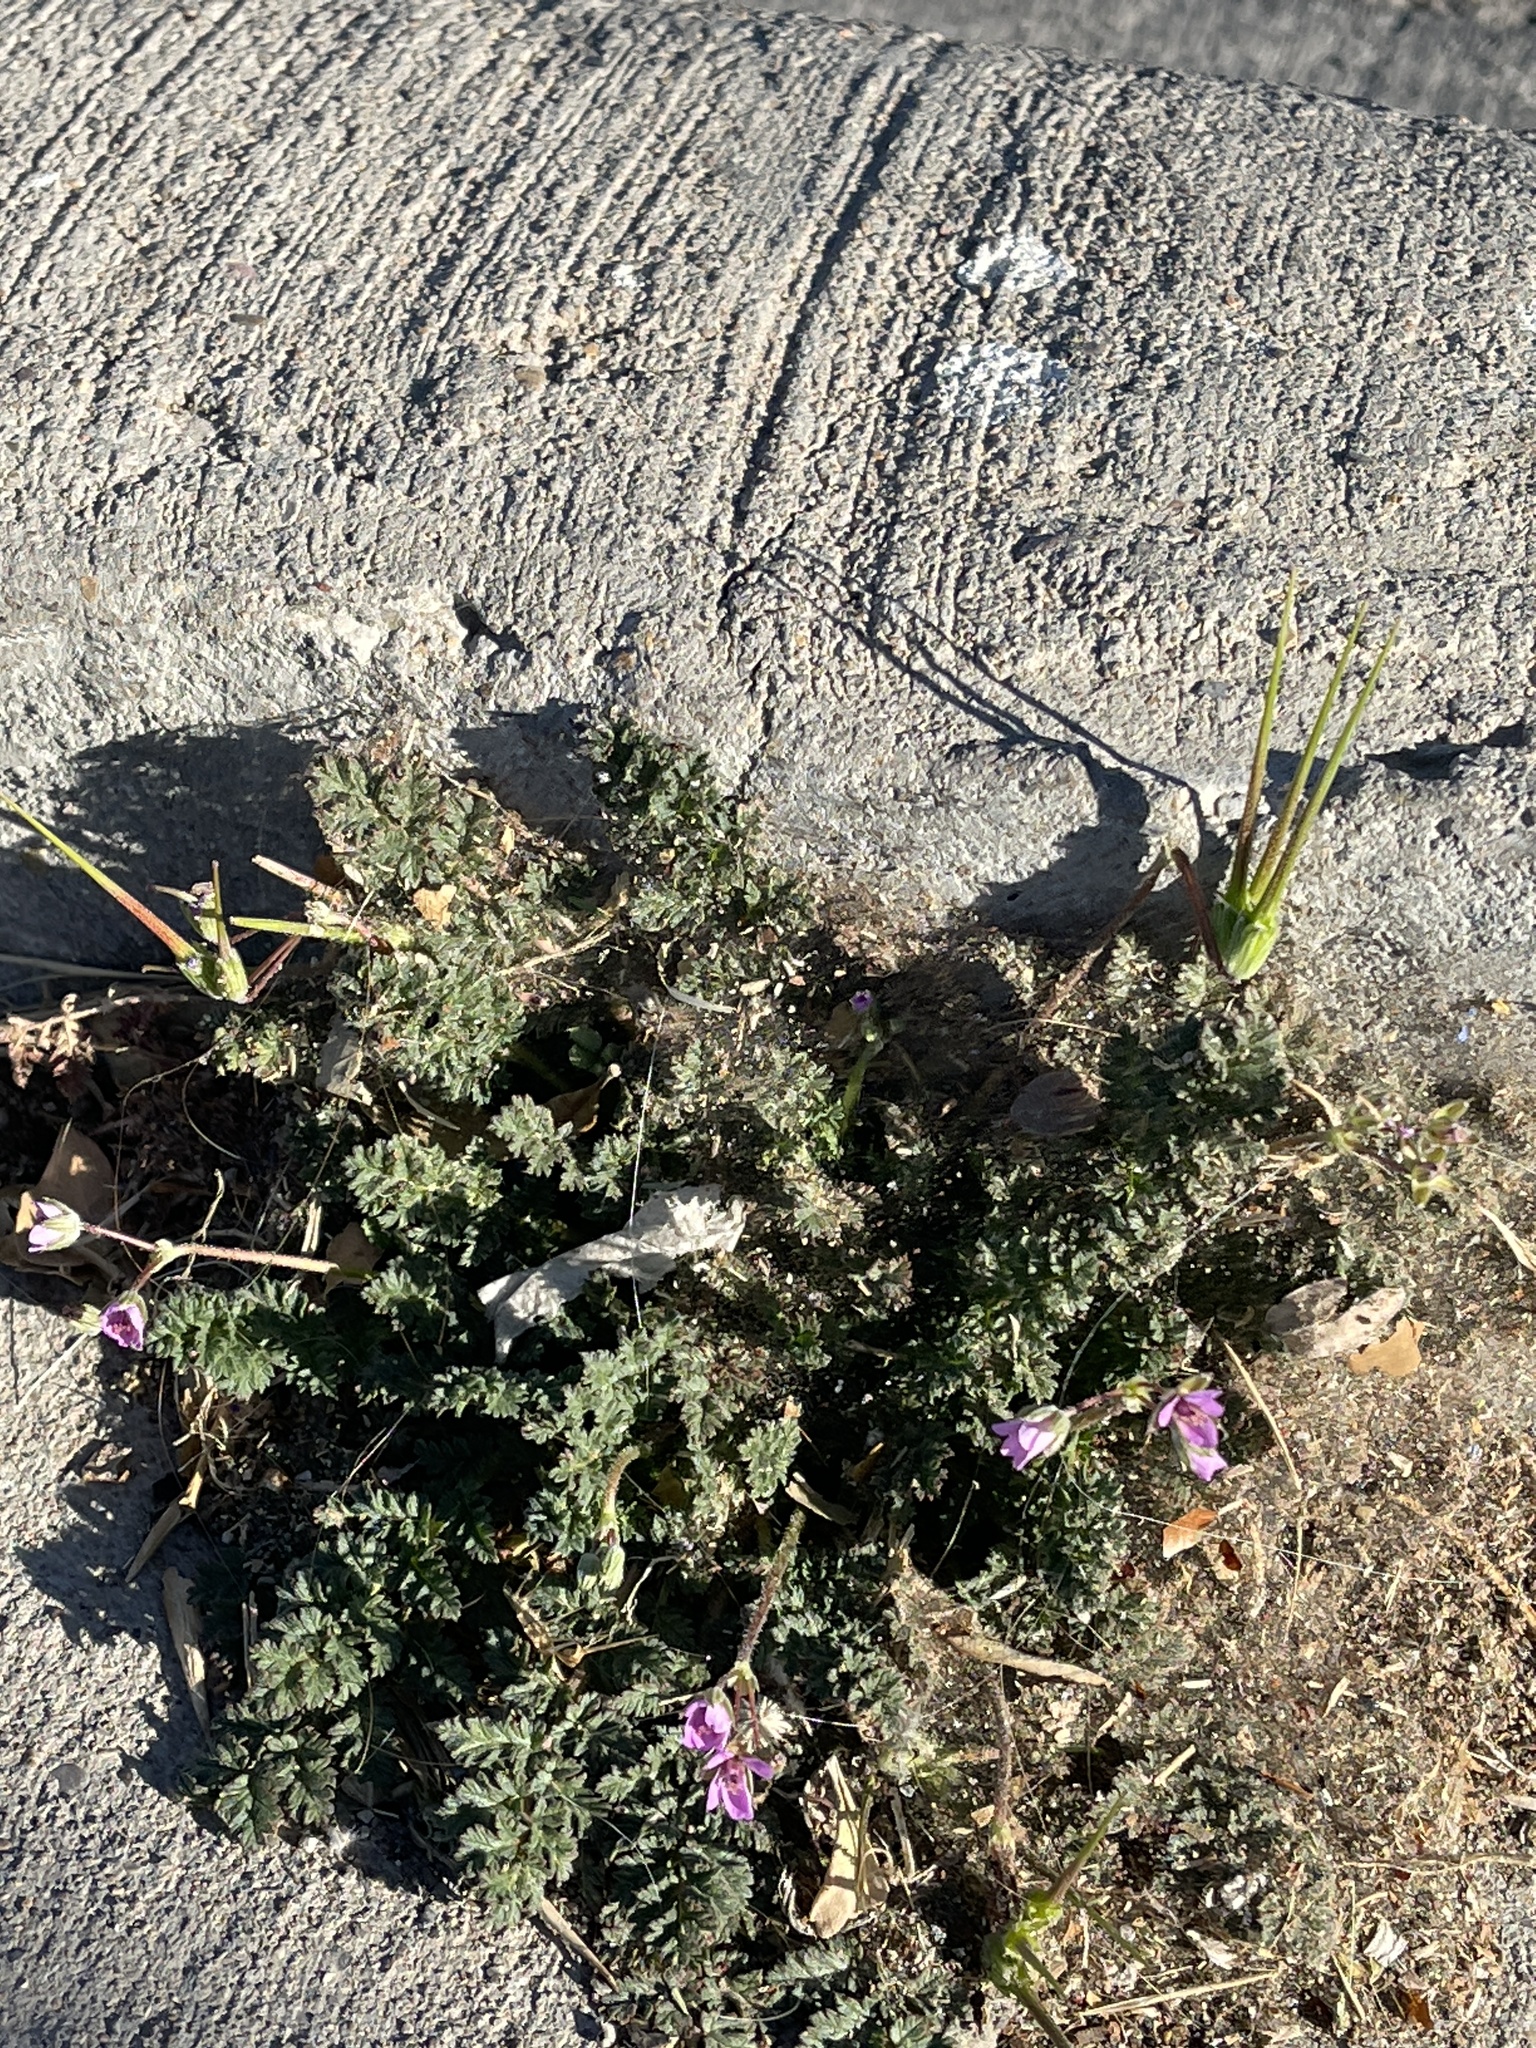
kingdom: Plantae
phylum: Tracheophyta
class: Magnoliopsida
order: Geraniales
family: Geraniaceae
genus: Erodium
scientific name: Erodium cicutarium
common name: Common stork's-bill
